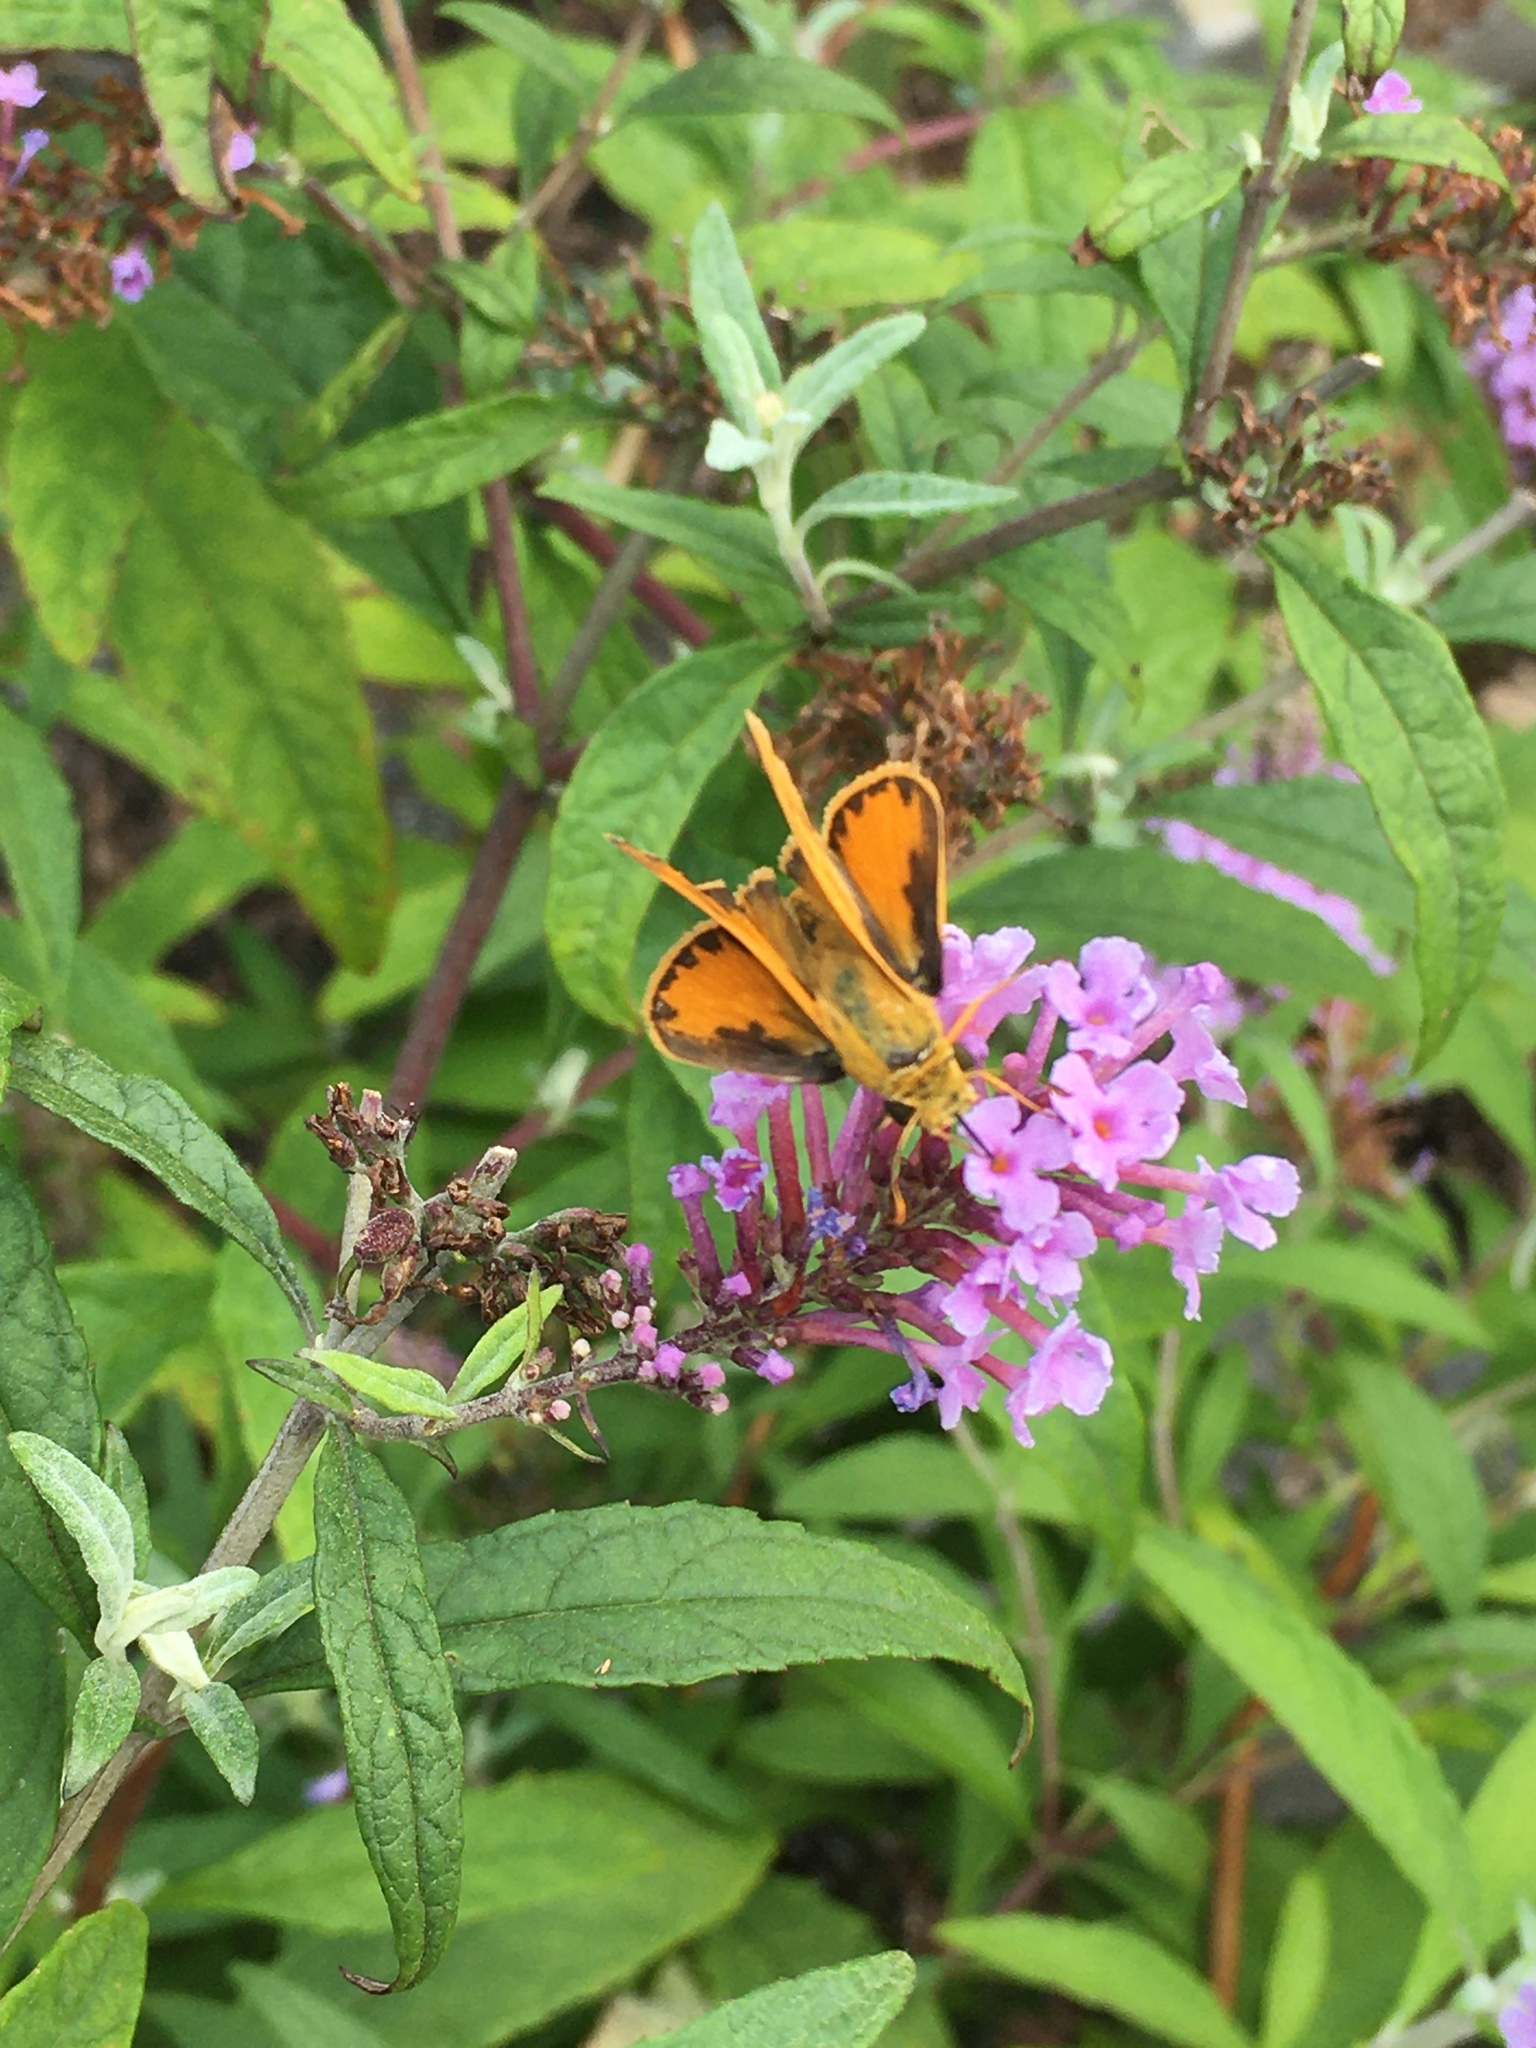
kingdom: Animalia
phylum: Arthropoda
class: Insecta
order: Lepidoptera
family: Hesperiidae
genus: Hylephila
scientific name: Hylephila phyleus
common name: Fiery skipper
